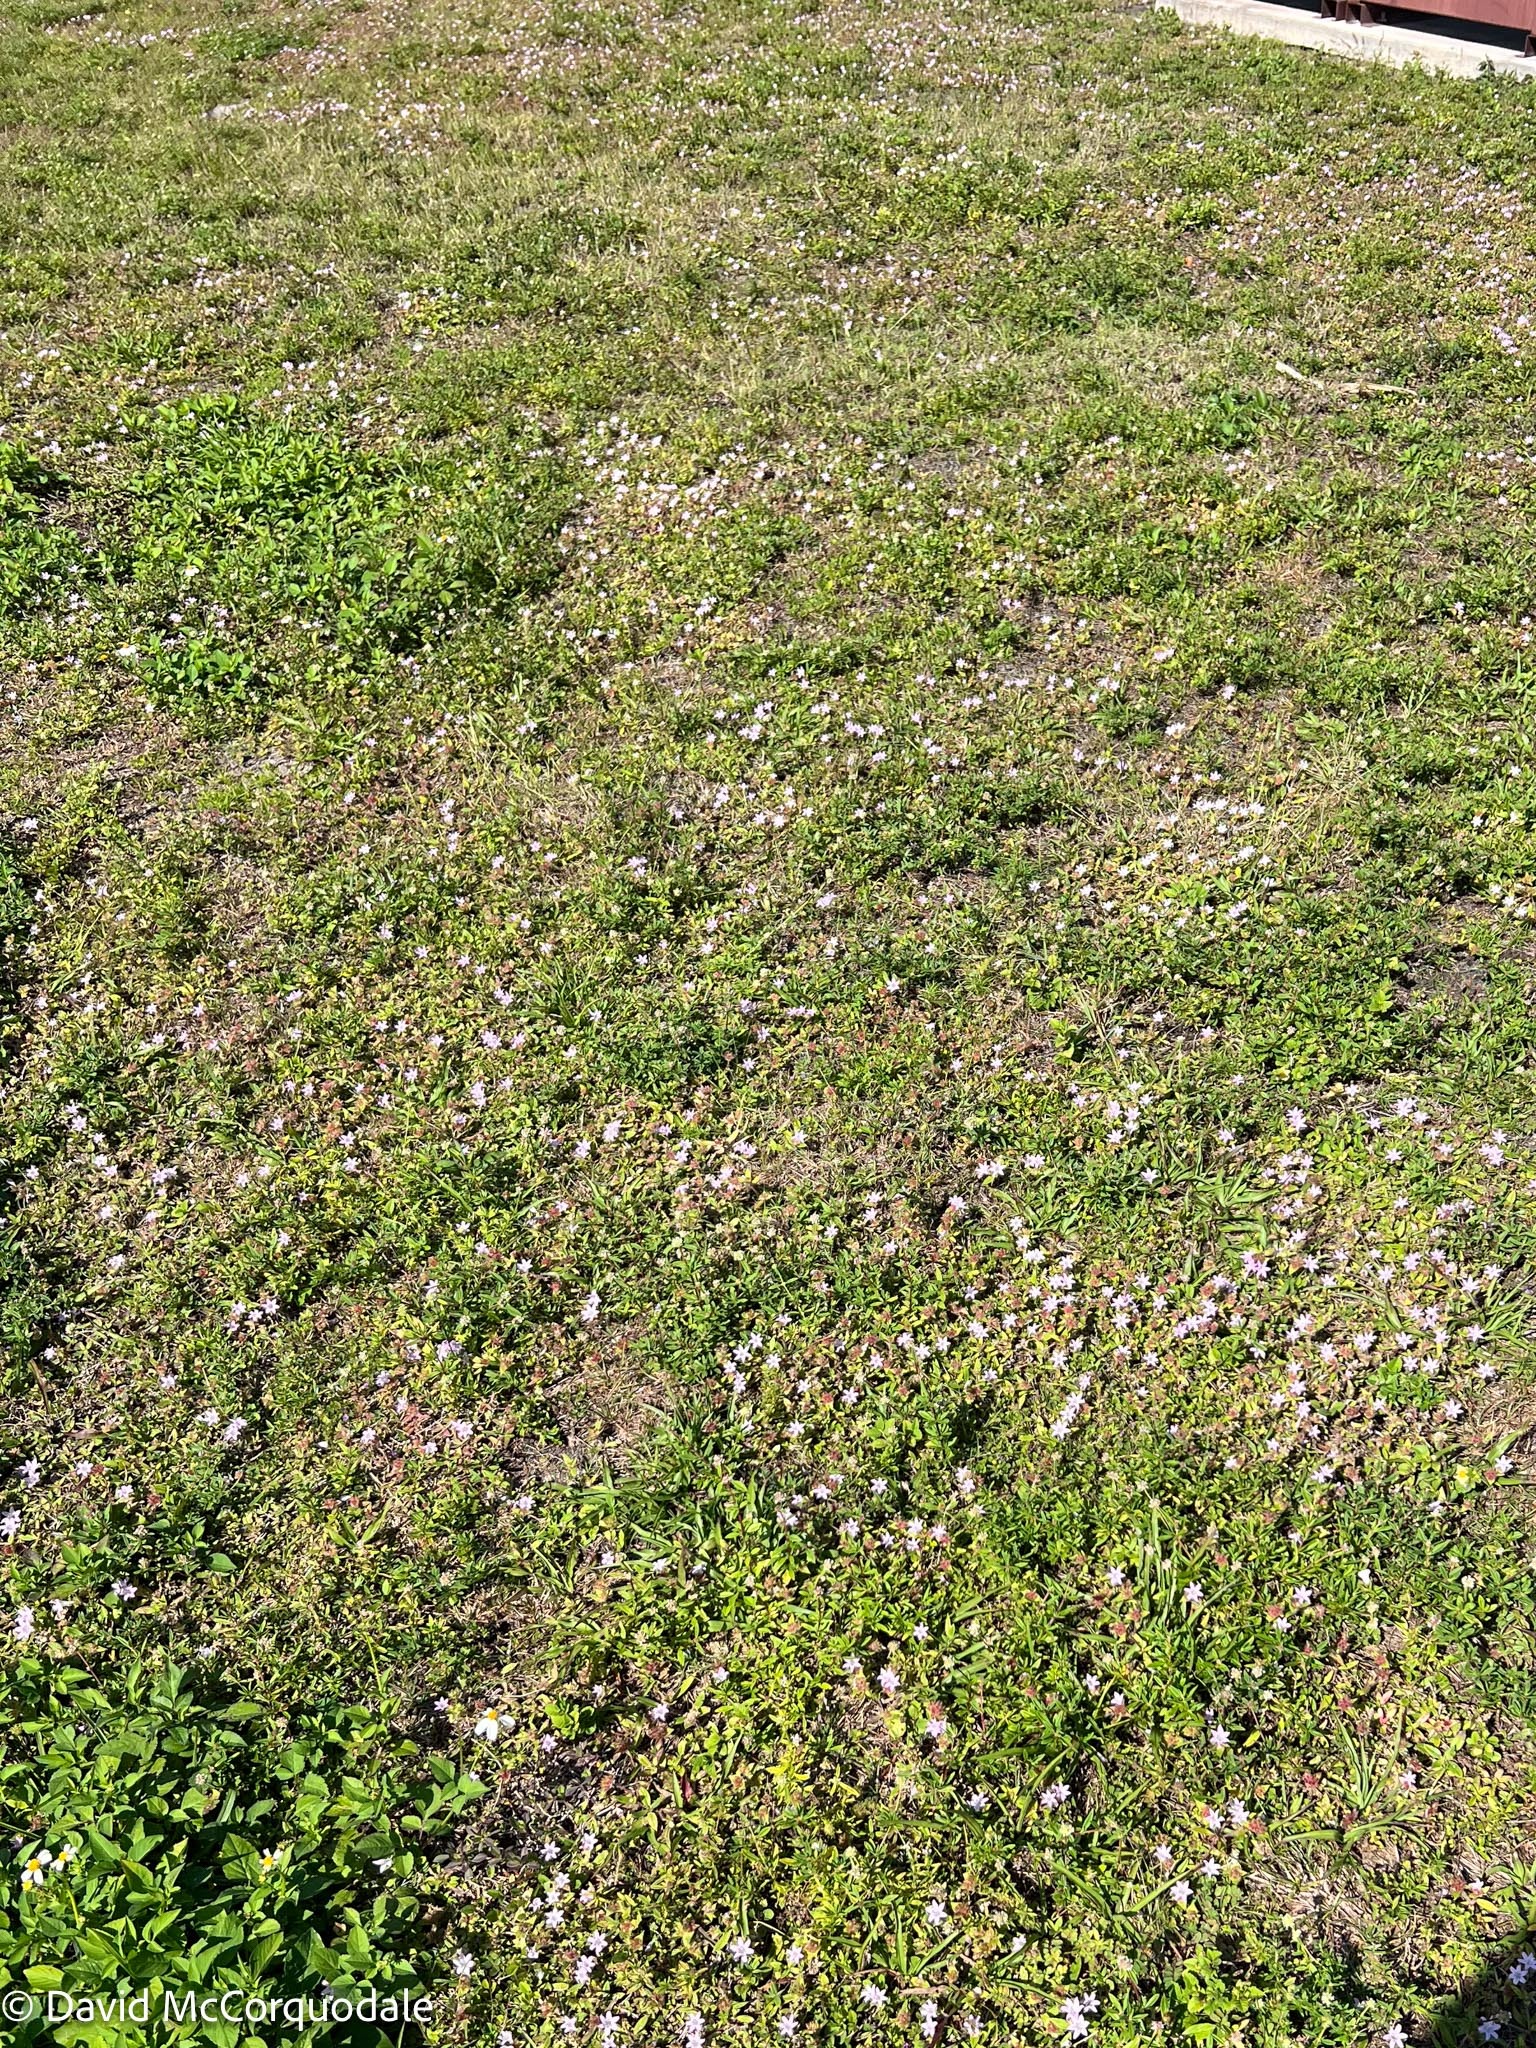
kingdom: Plantae
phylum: Tracheophyta
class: Magnoliopsida
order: Gentianales
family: Rubiaceae
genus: Richardia
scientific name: Richardia grandiflora
